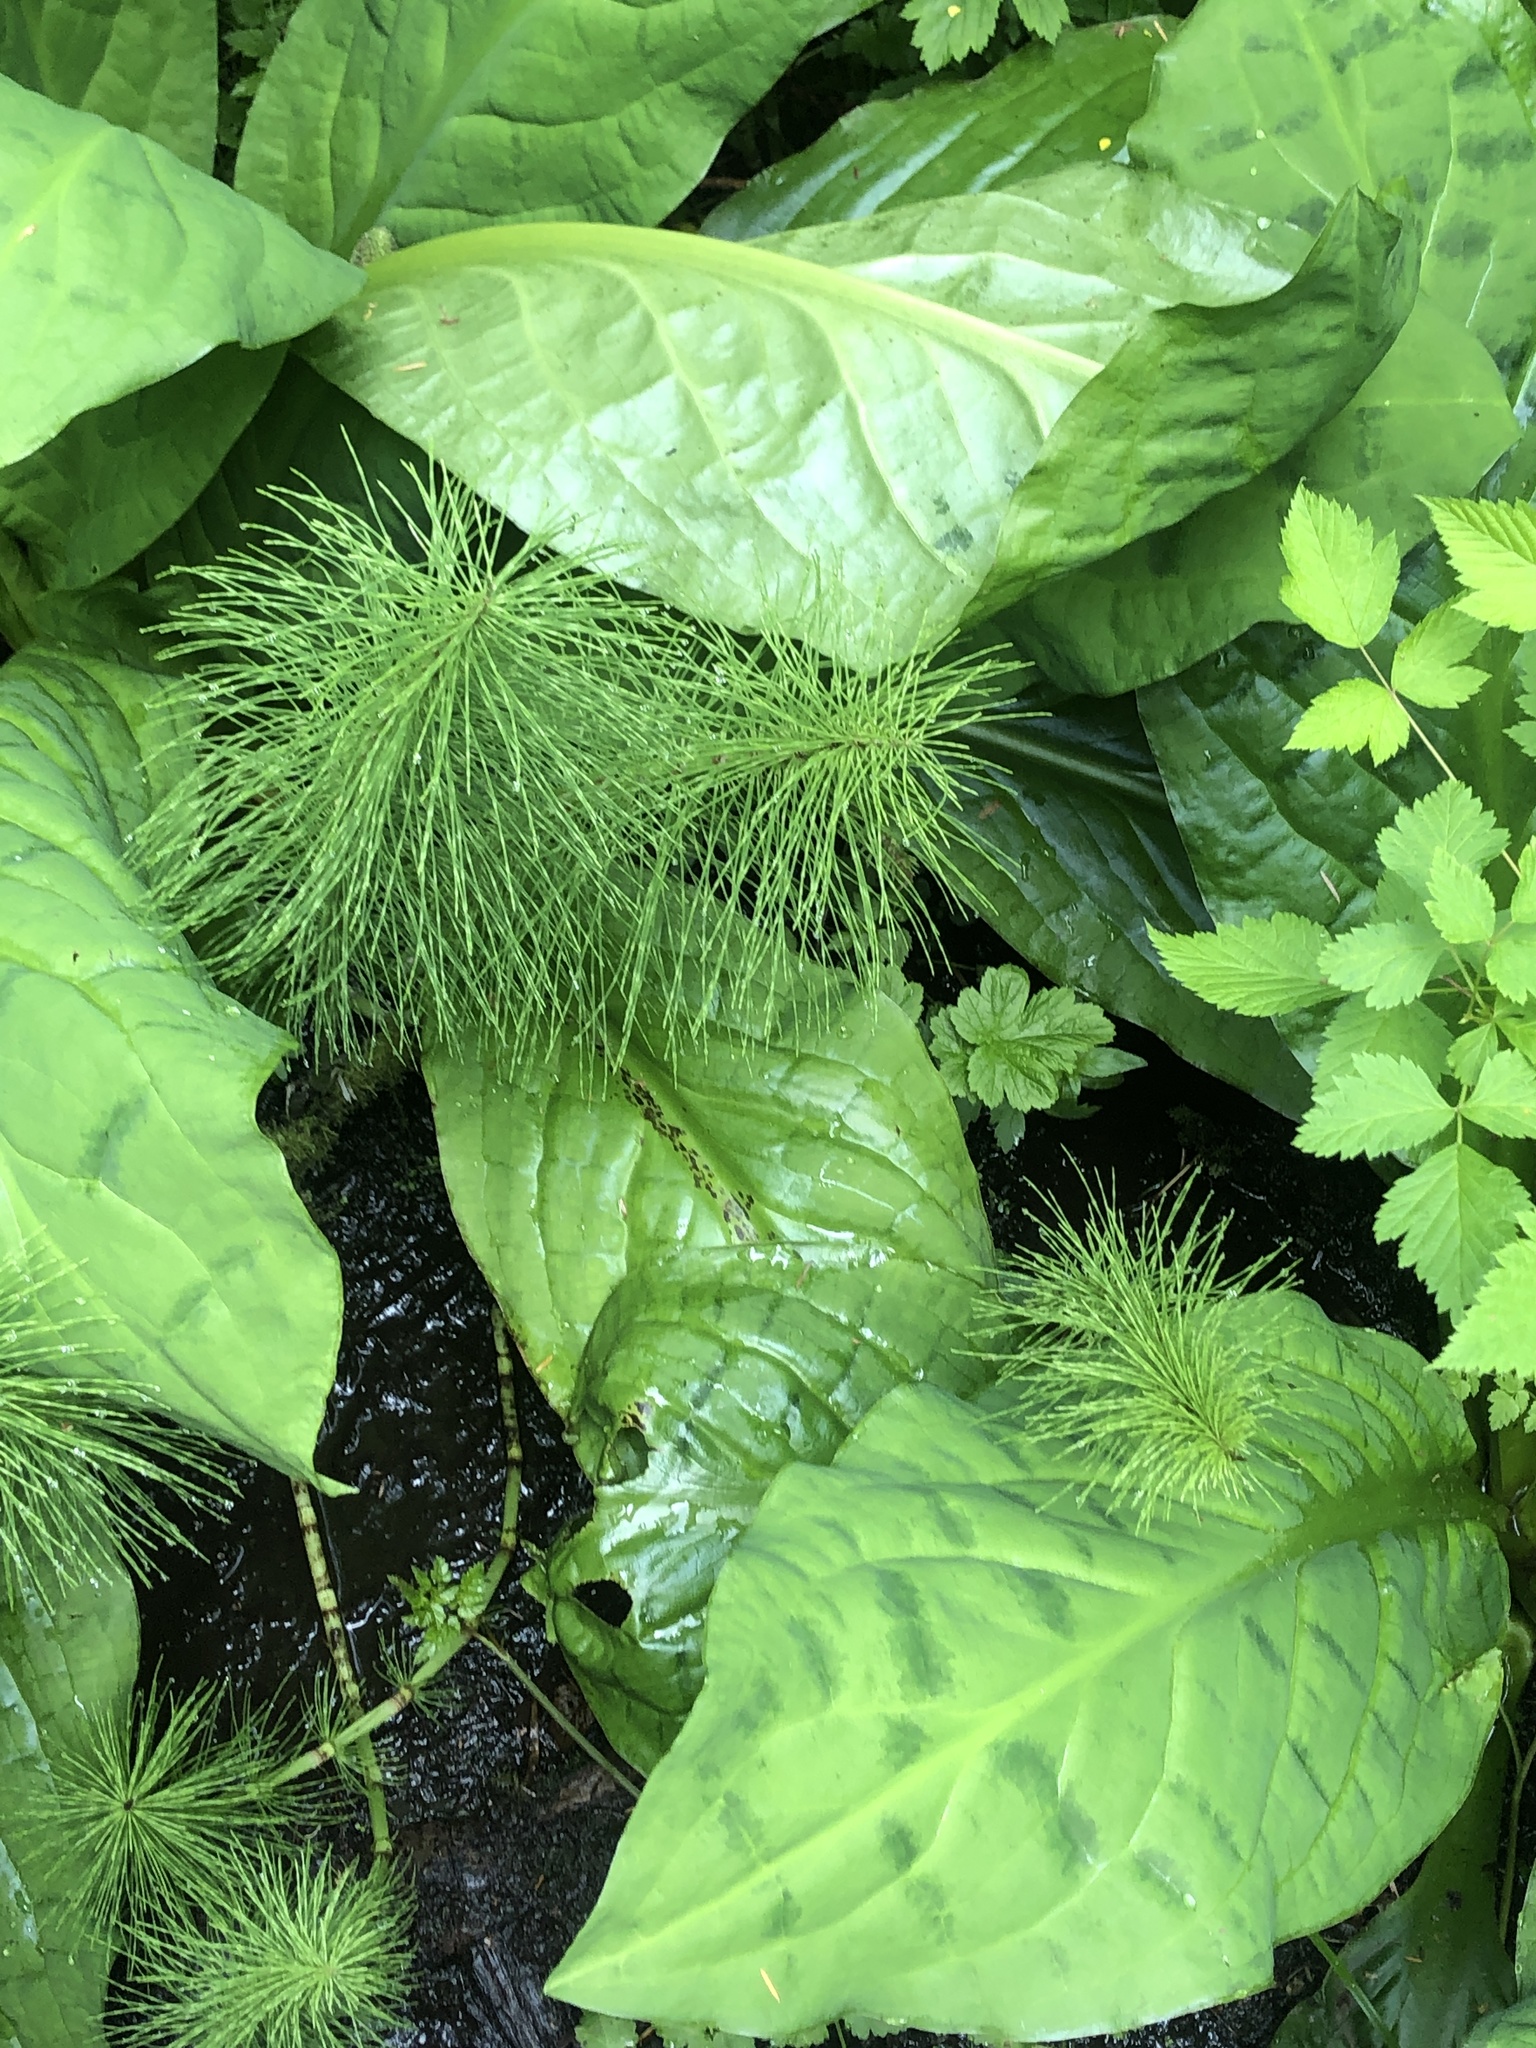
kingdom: Plantae
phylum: Tracheophyta
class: Liliopsida
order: Alismatales
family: Araceae
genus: Lysichiton
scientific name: Lysichiton americanus
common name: American skunk cabbage
